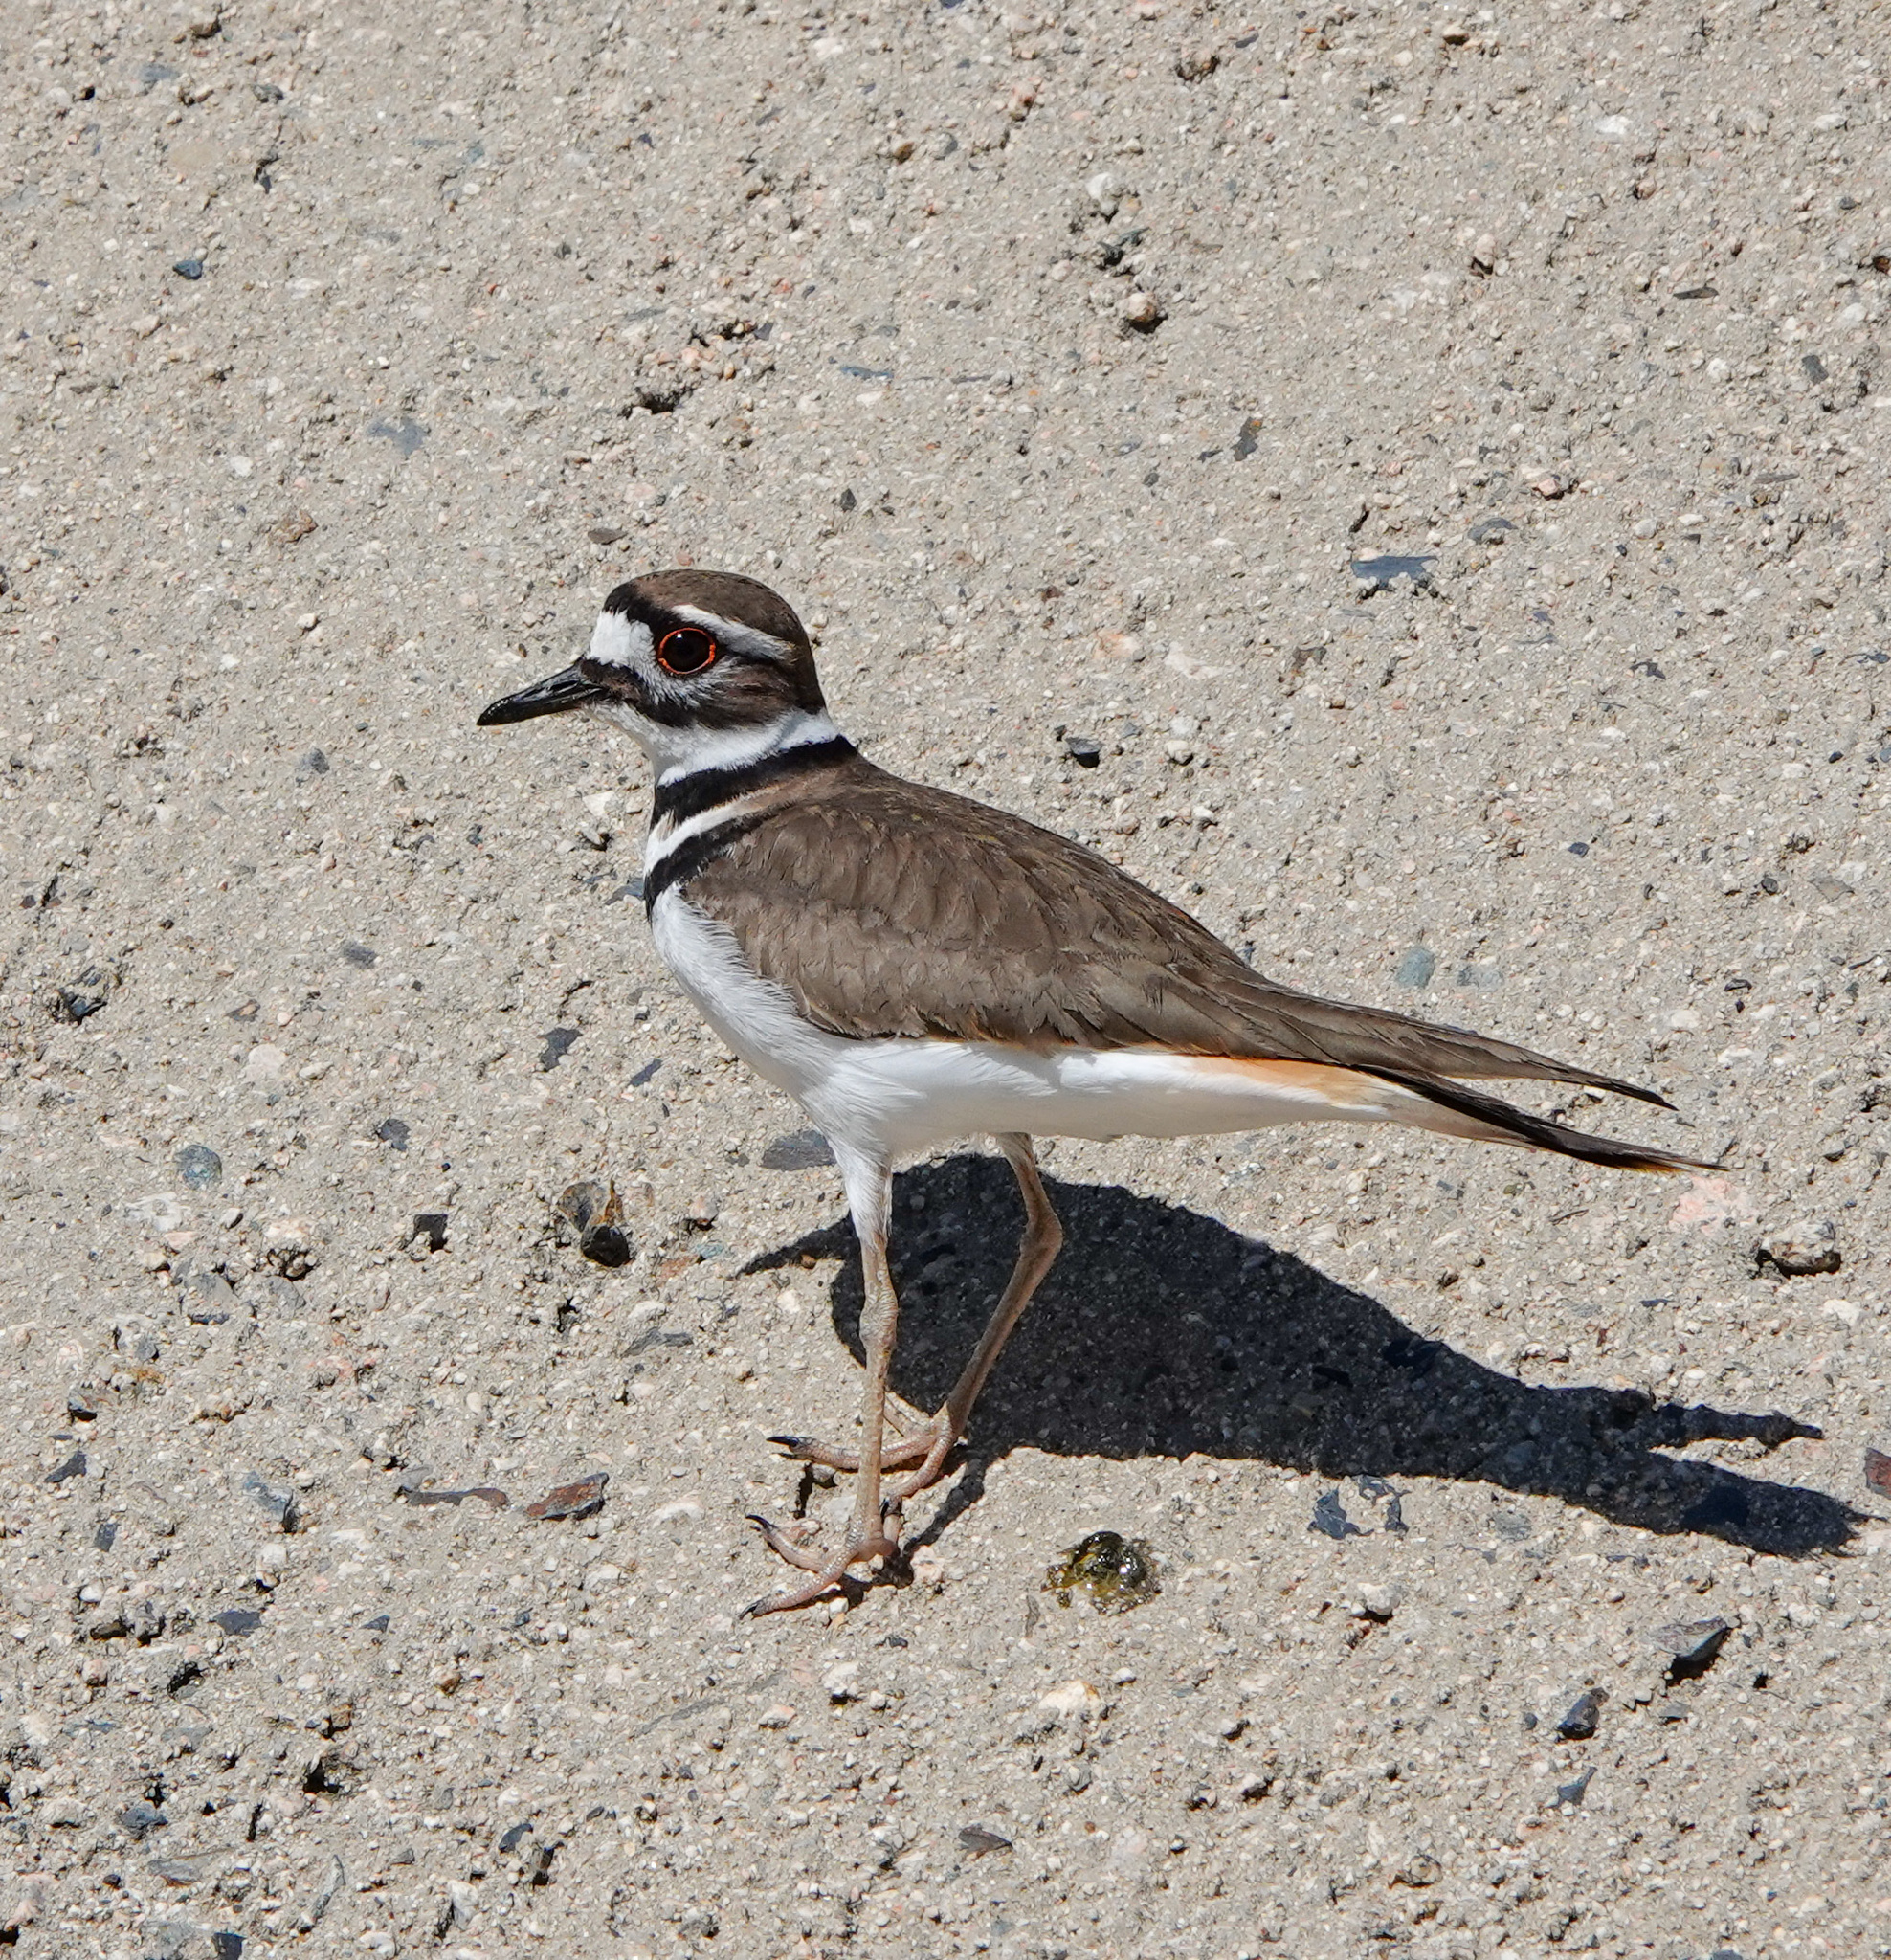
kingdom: Animalia
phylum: Chordata
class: Aves
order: Charadriiformes
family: Charadriidae
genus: Charadrius
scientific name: Charadrius vociferus
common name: Killdeer
